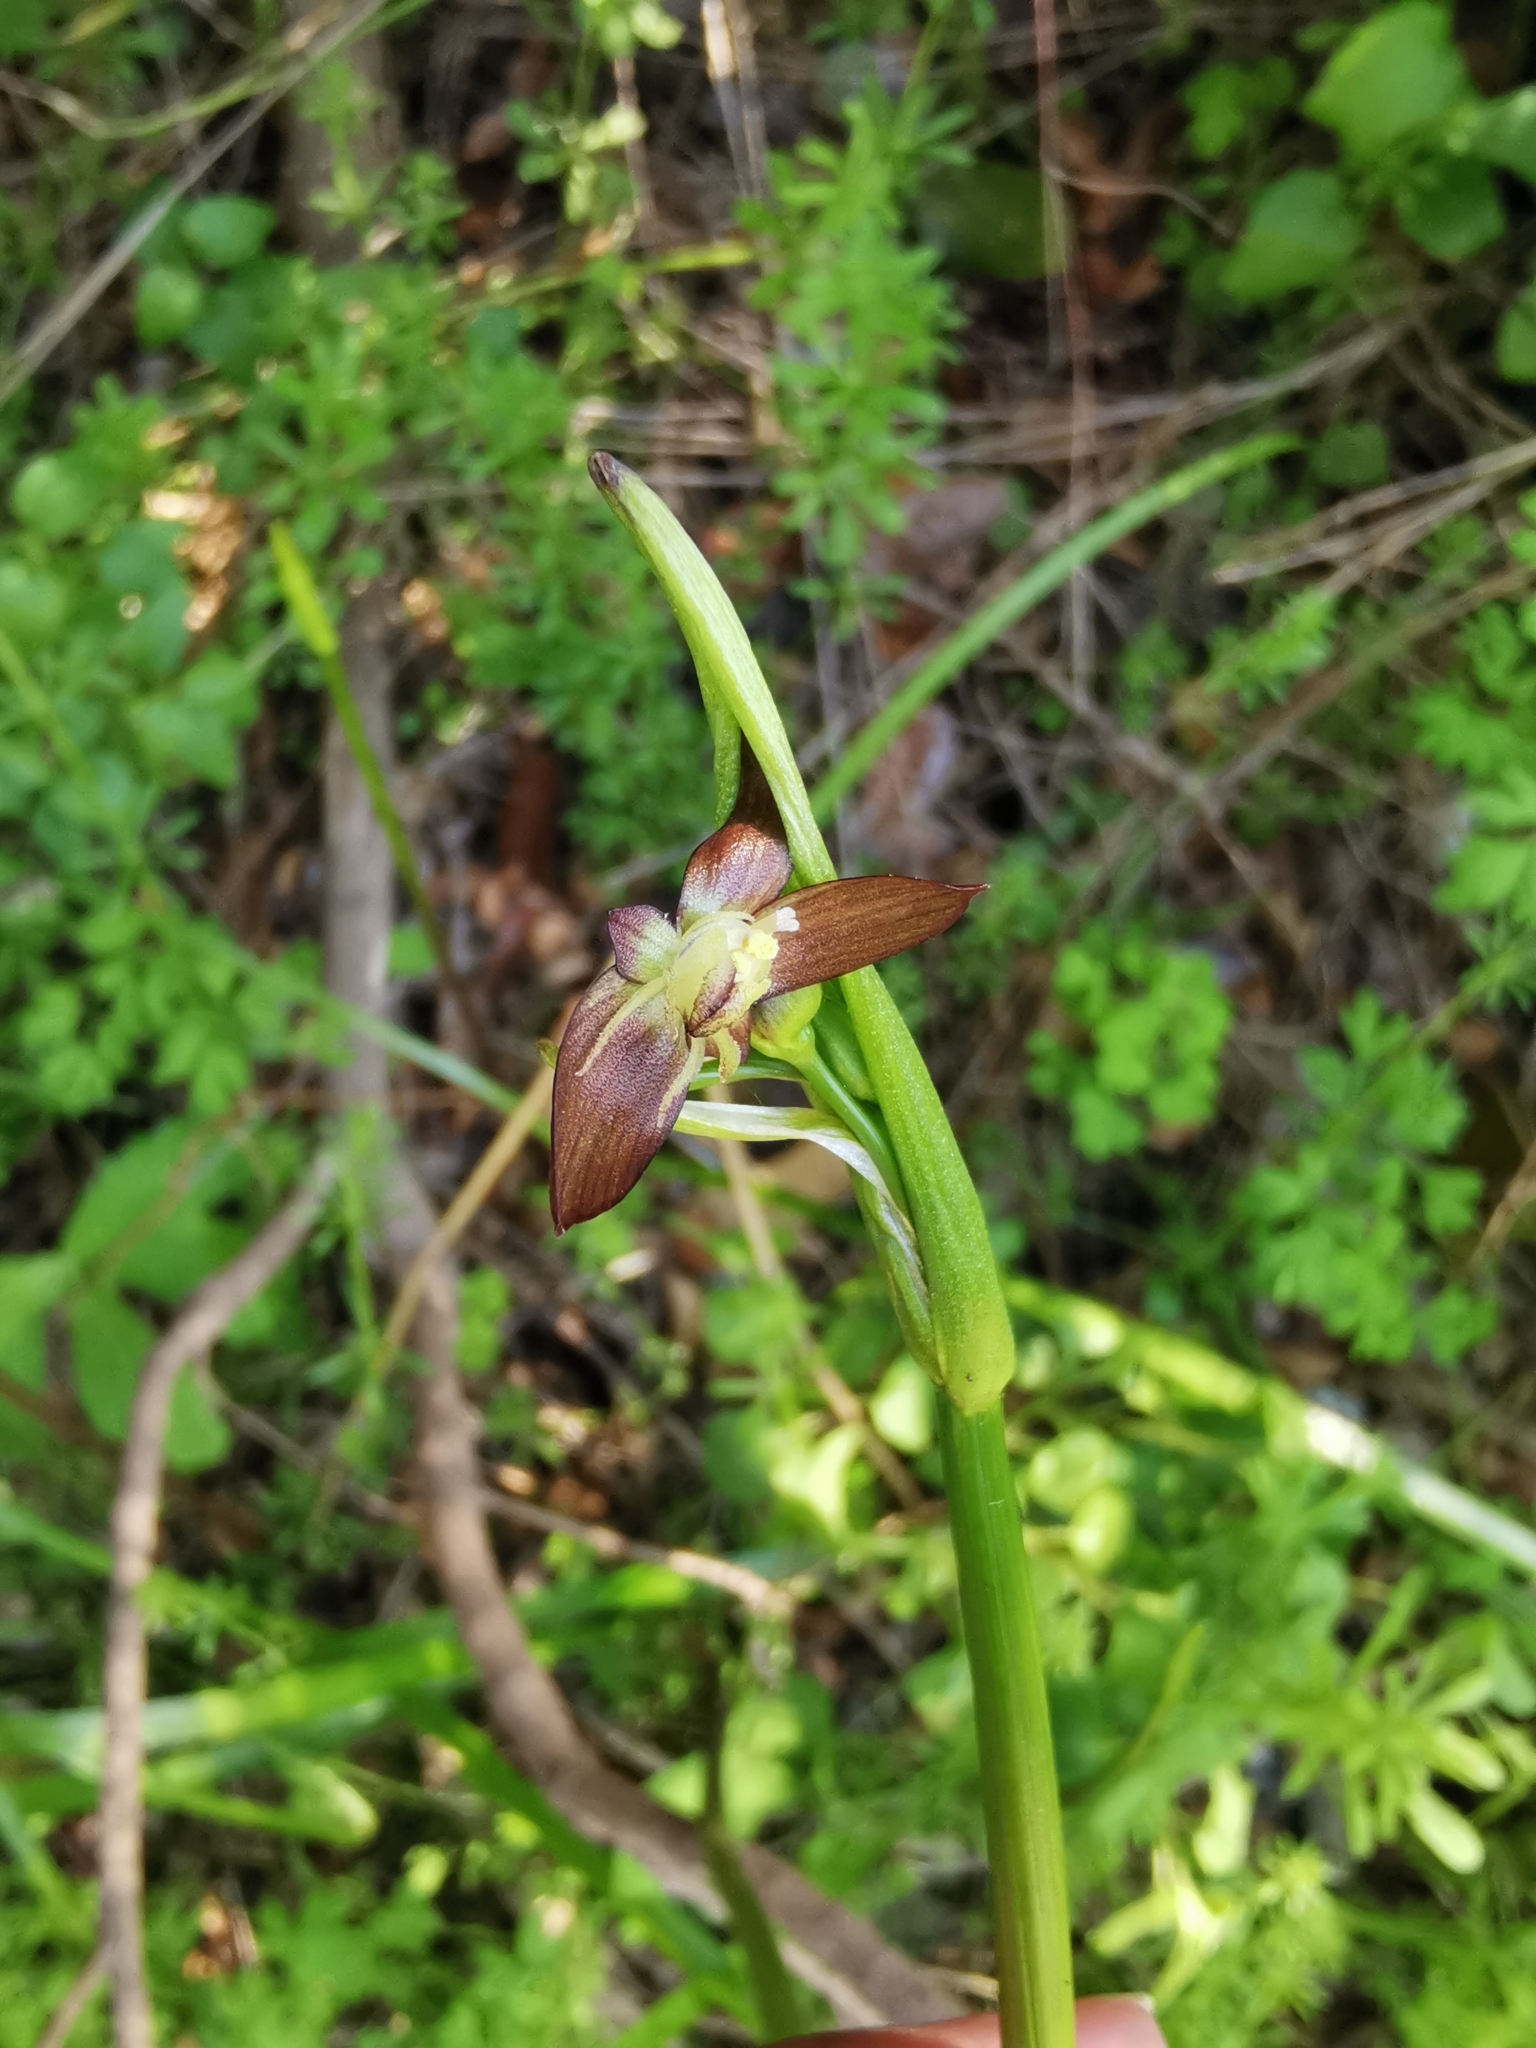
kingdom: Plantae
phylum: Tracheophyta
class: Liliopsida
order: Asparagales
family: Amaryllidaceae
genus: Gilliesia
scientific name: Gilliesia graminea
